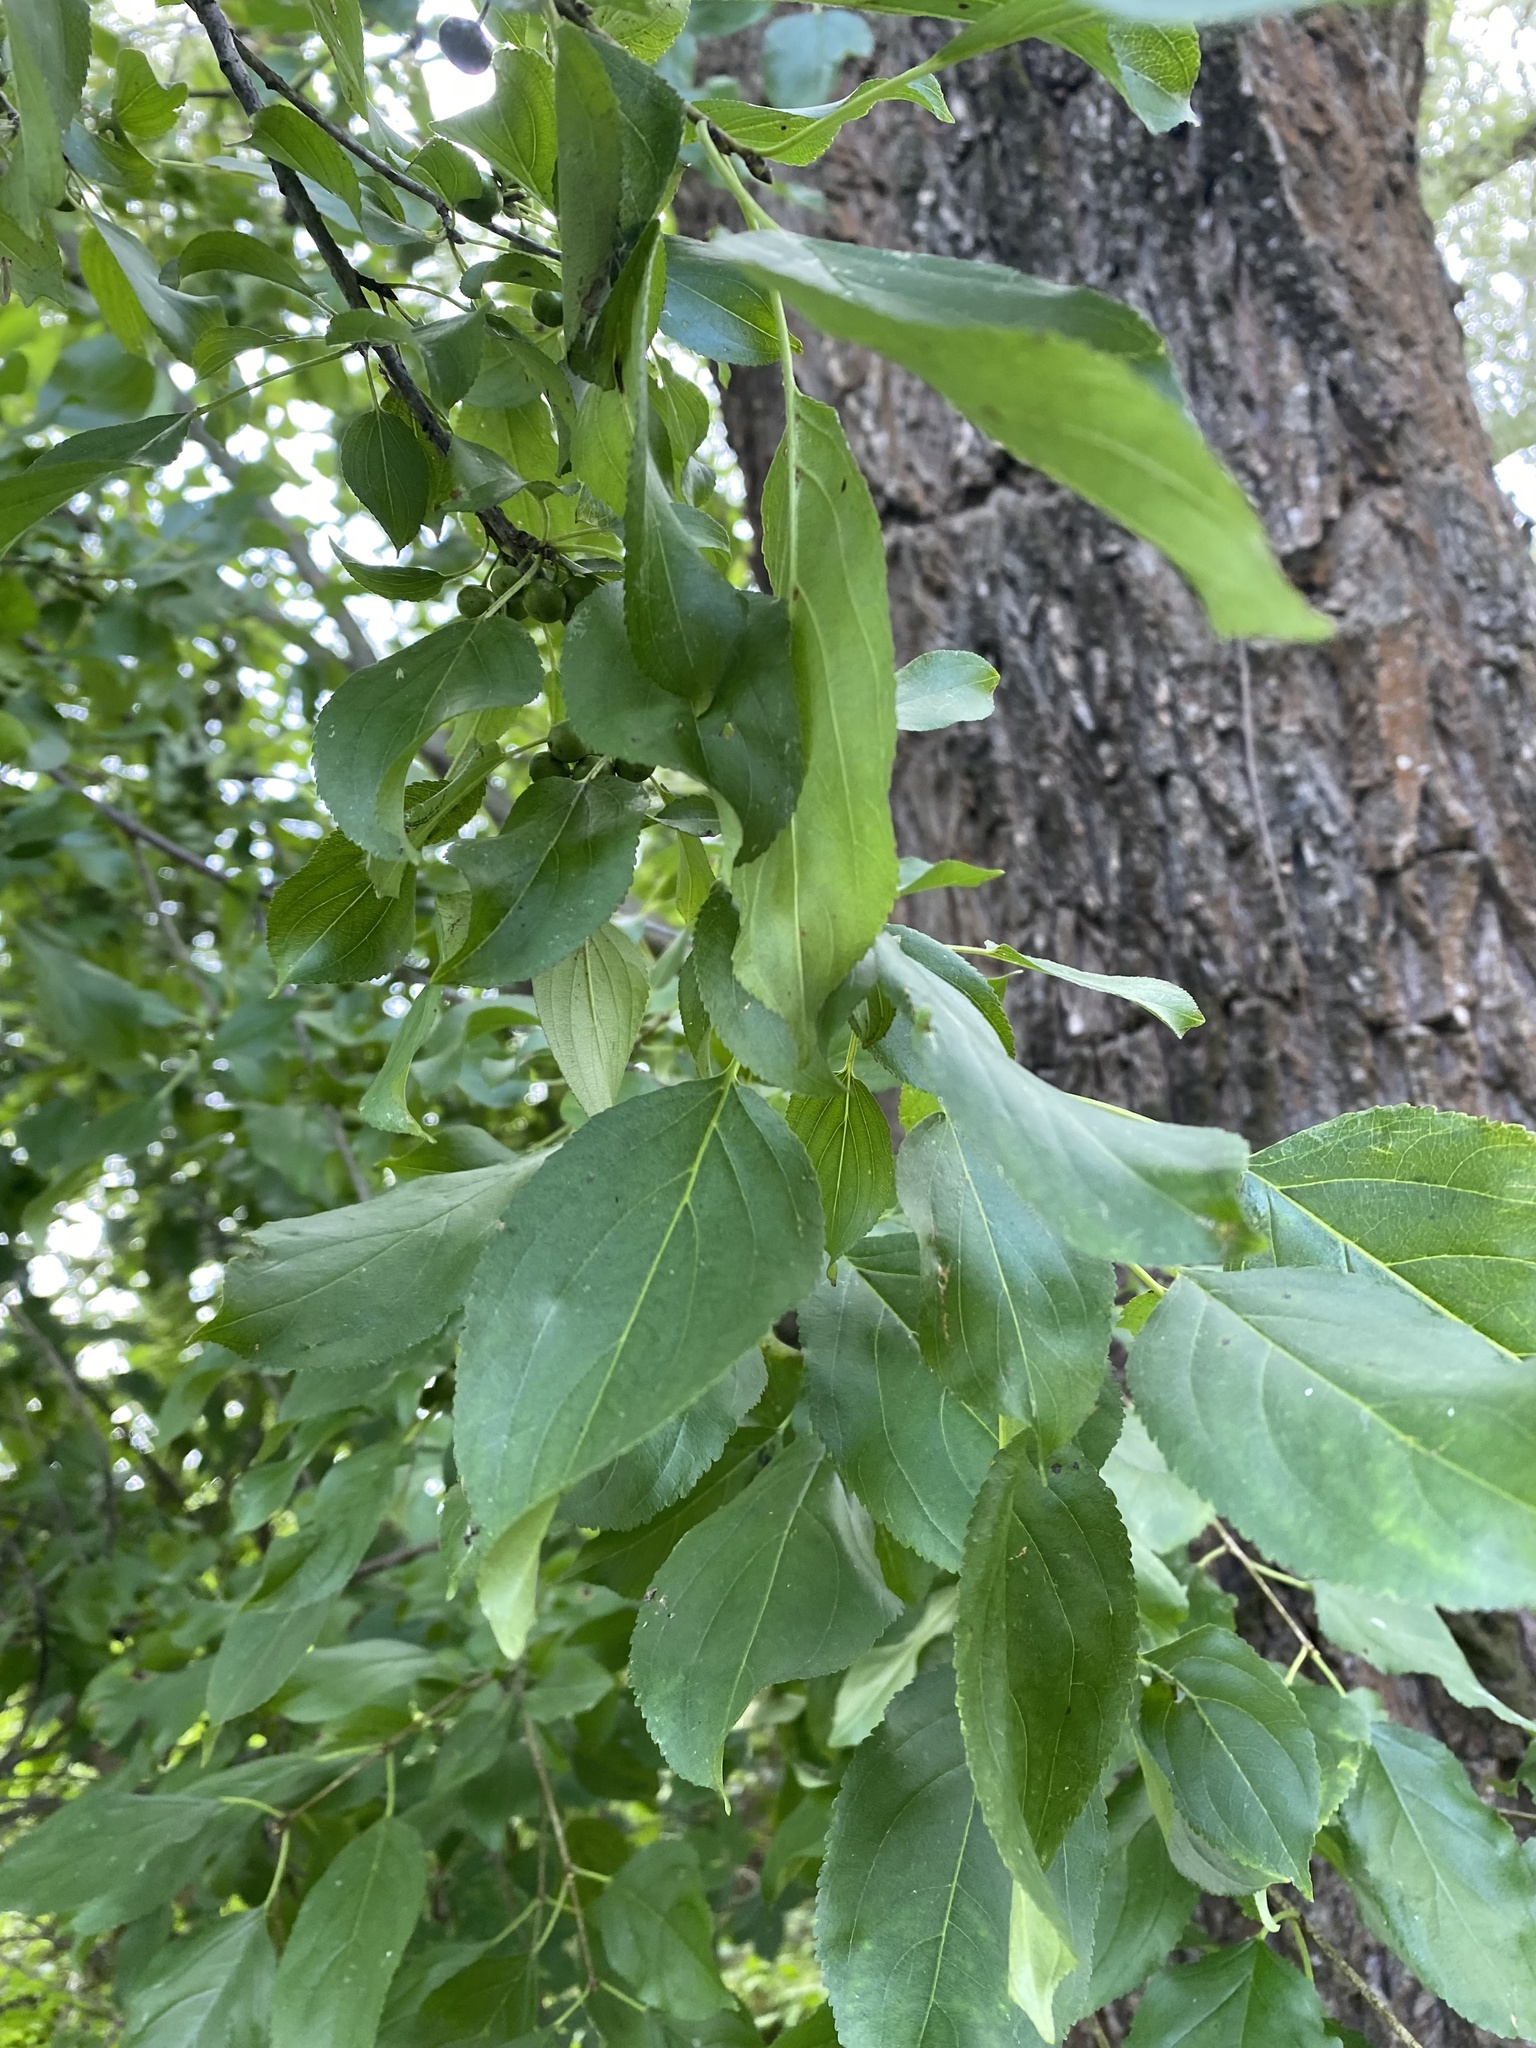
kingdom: Plantae
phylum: Tracheophyta
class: Magnoliopsida
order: Rosales
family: Rhamnaceae
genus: Rhamnus
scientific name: Rhamnus cathartica
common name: Common buckthorn
